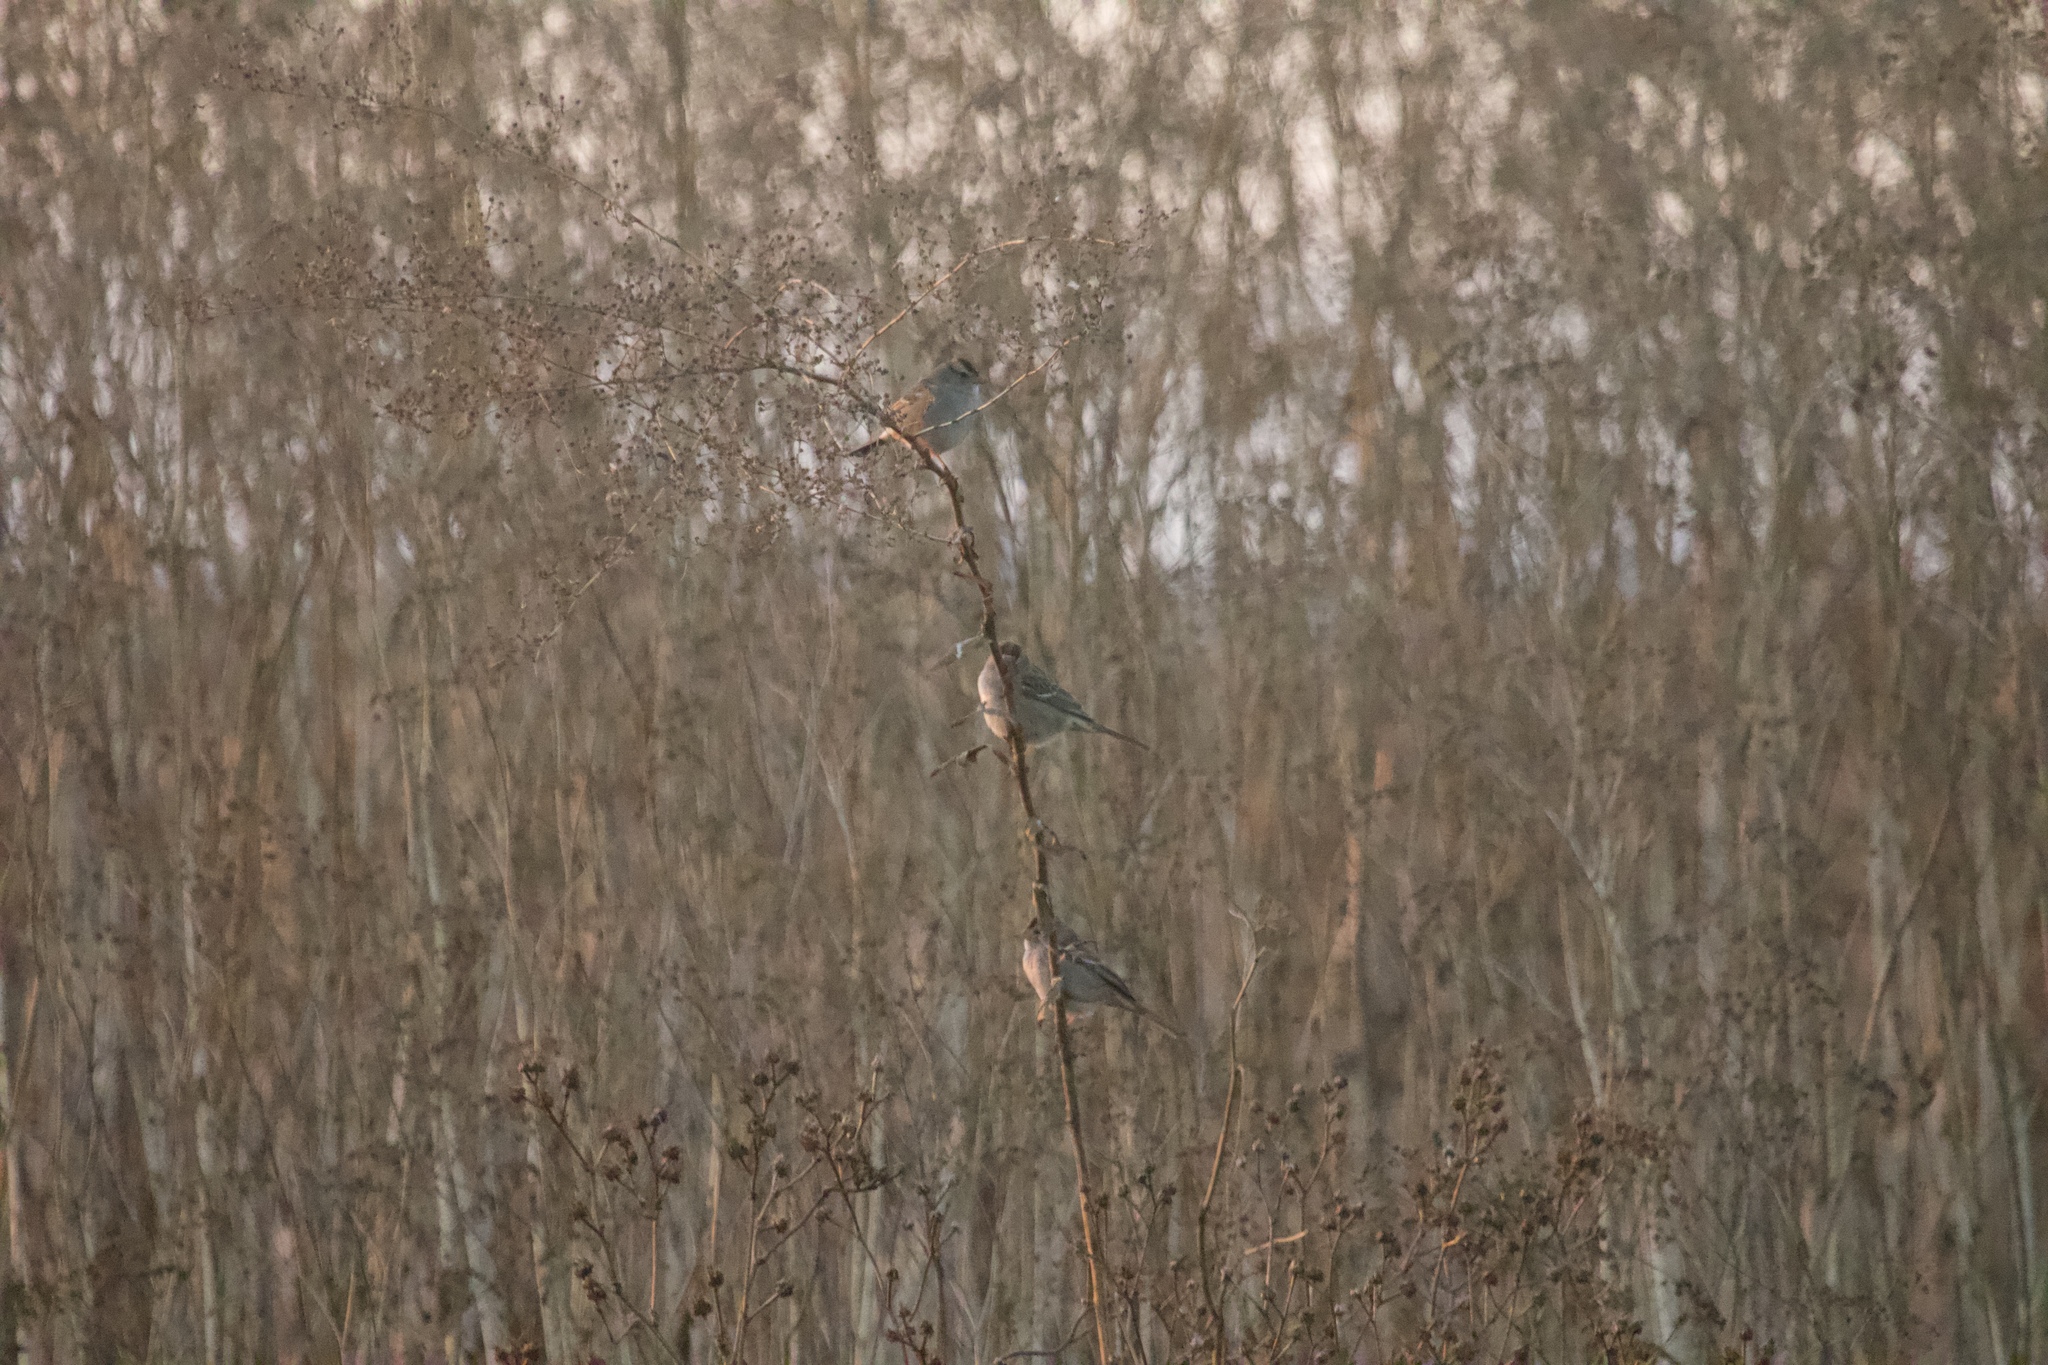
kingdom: Animalia
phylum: Chordata
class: Aves
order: Passeriformes
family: Passerellidae
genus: Zonotrichia
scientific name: Zonotrichia leucophrys
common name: White-crowned sparrow
